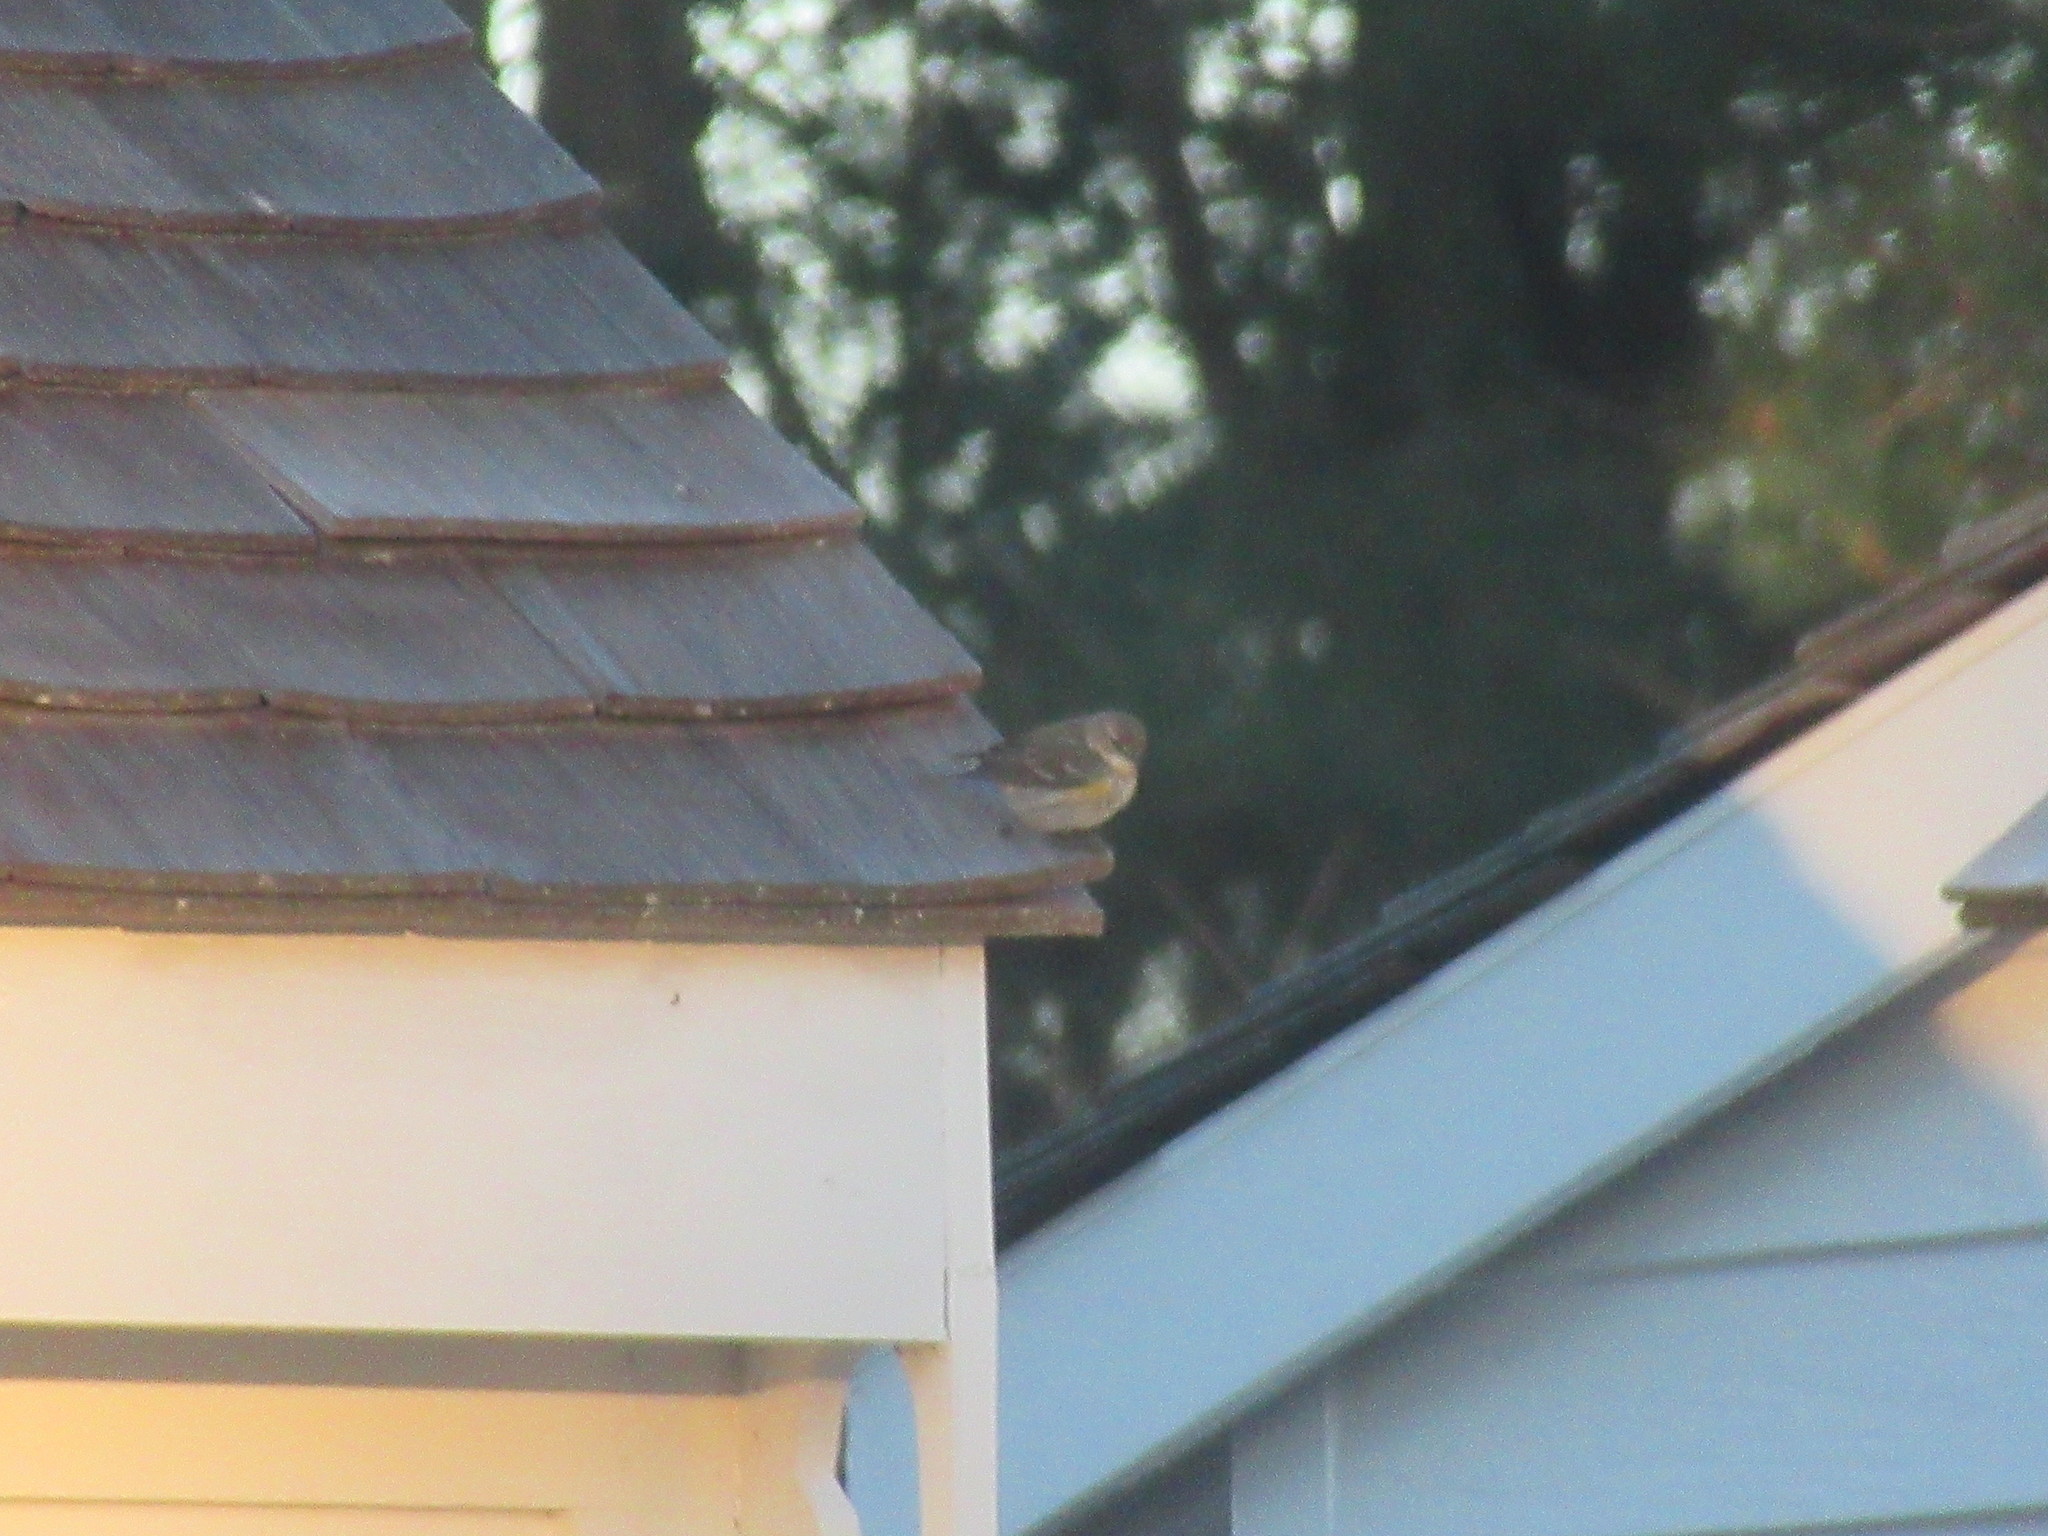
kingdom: Animalia
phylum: Chordata
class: Aves
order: Passeriformes
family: Parulidae
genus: Setophaga
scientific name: Setophaga coronata
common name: Myrtle warbler
